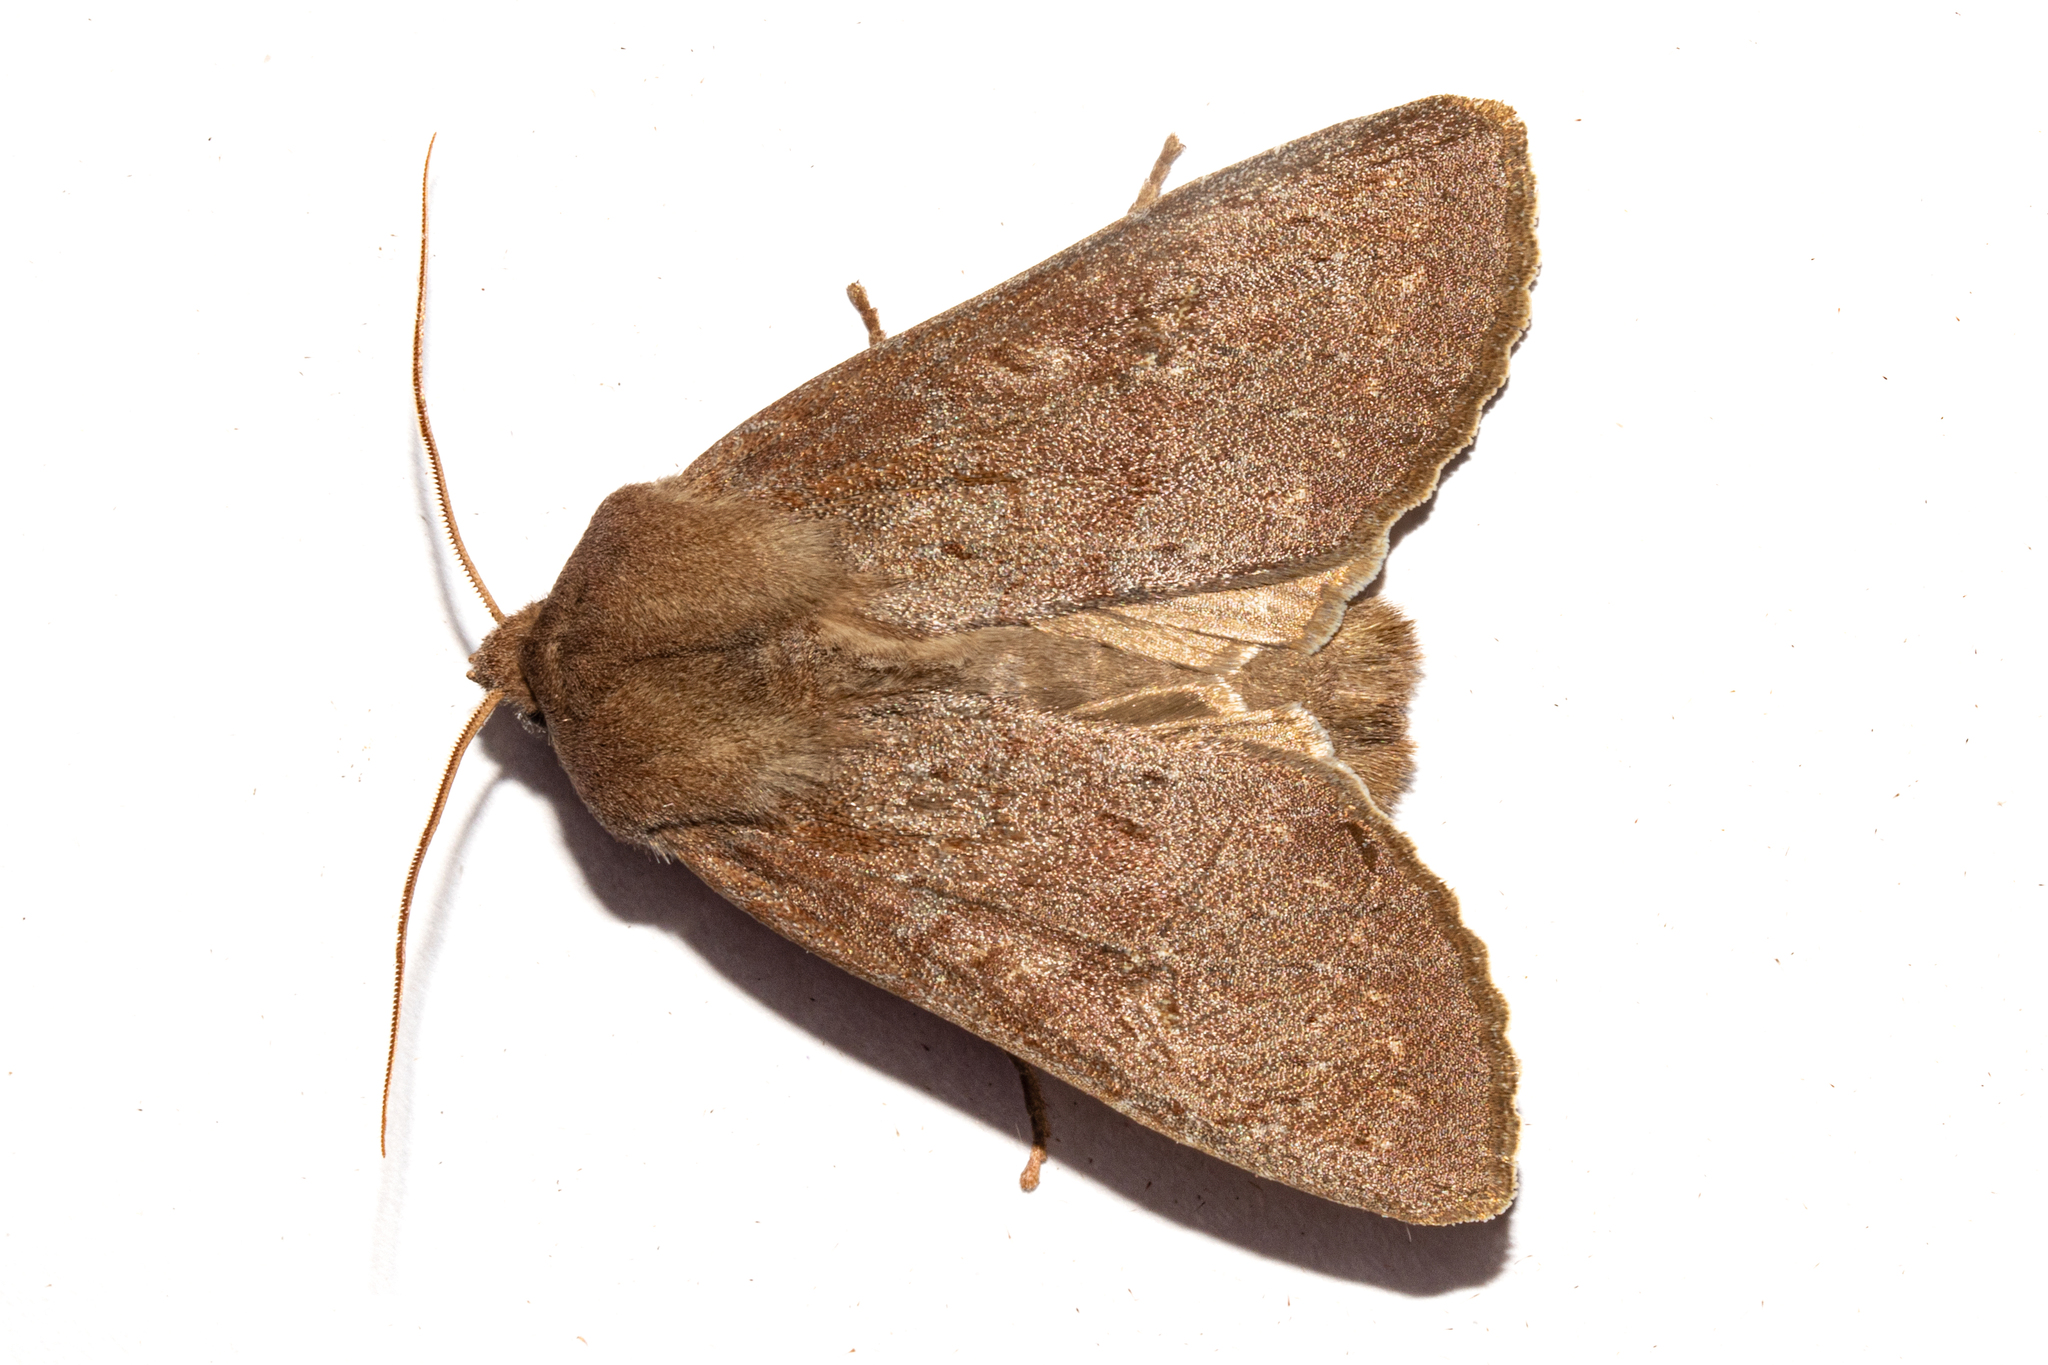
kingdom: Animalia
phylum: Arthropoda
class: Insecta
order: Lepidoptera
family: Noctuidae
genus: Ichneutica
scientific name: Ichneutica nullifera
